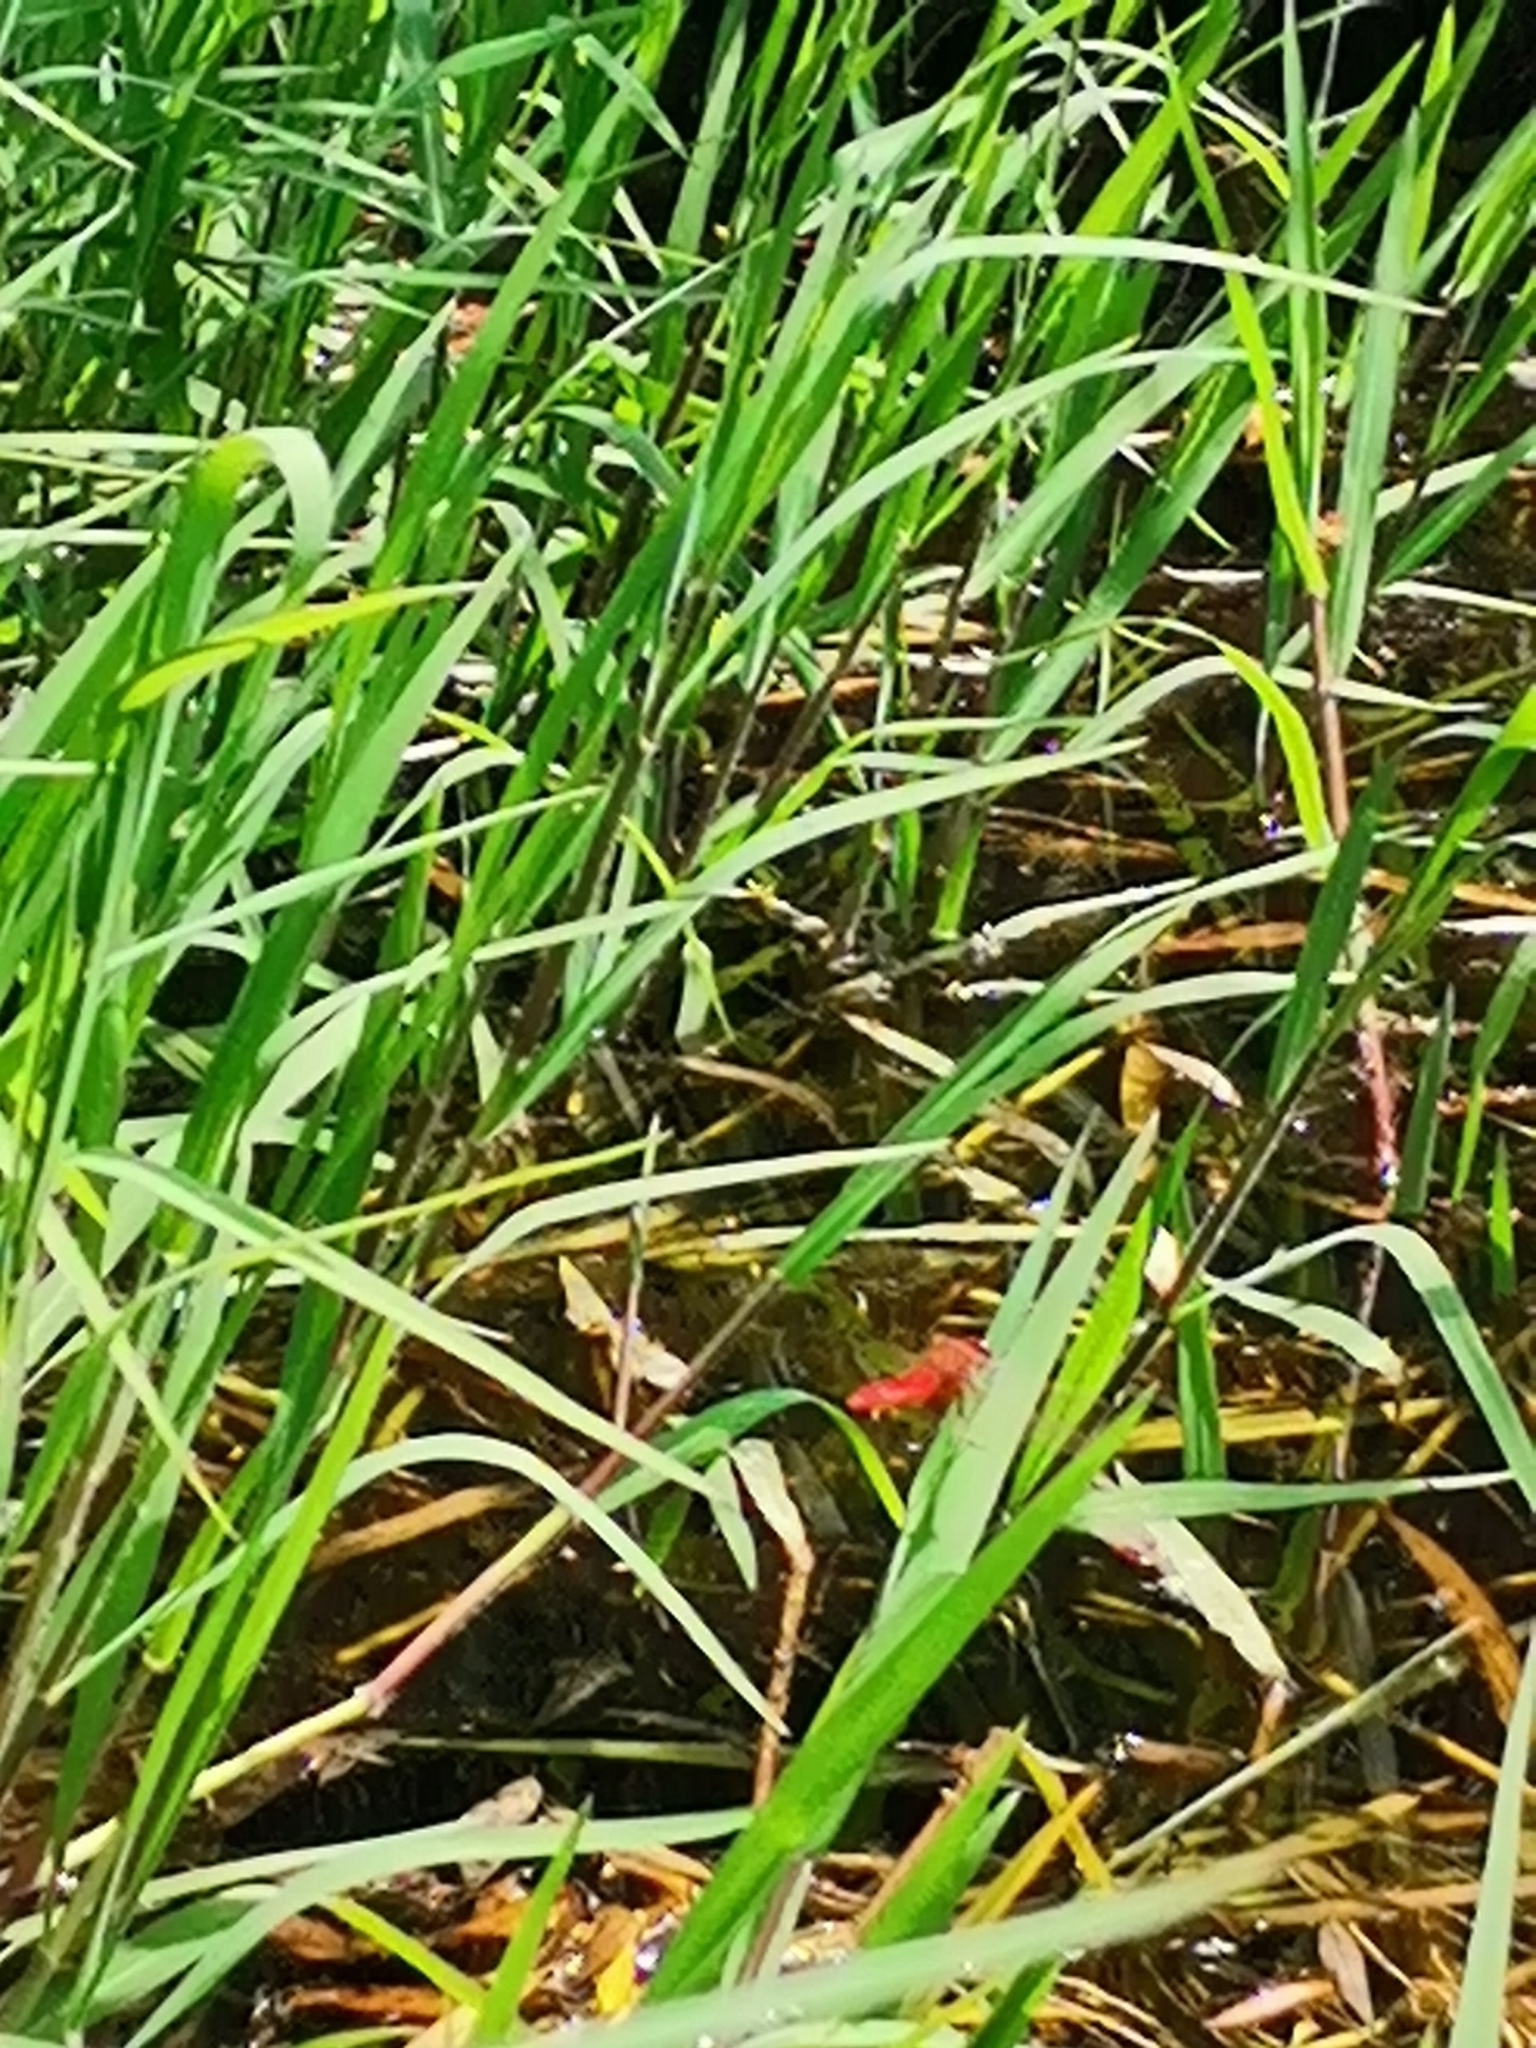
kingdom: Animalia
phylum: Arthropoda
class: Insecta
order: Odonata
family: Libellulidae
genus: Crocothemis
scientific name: Crocothemis erythraea
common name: Scarlet dragonfly
